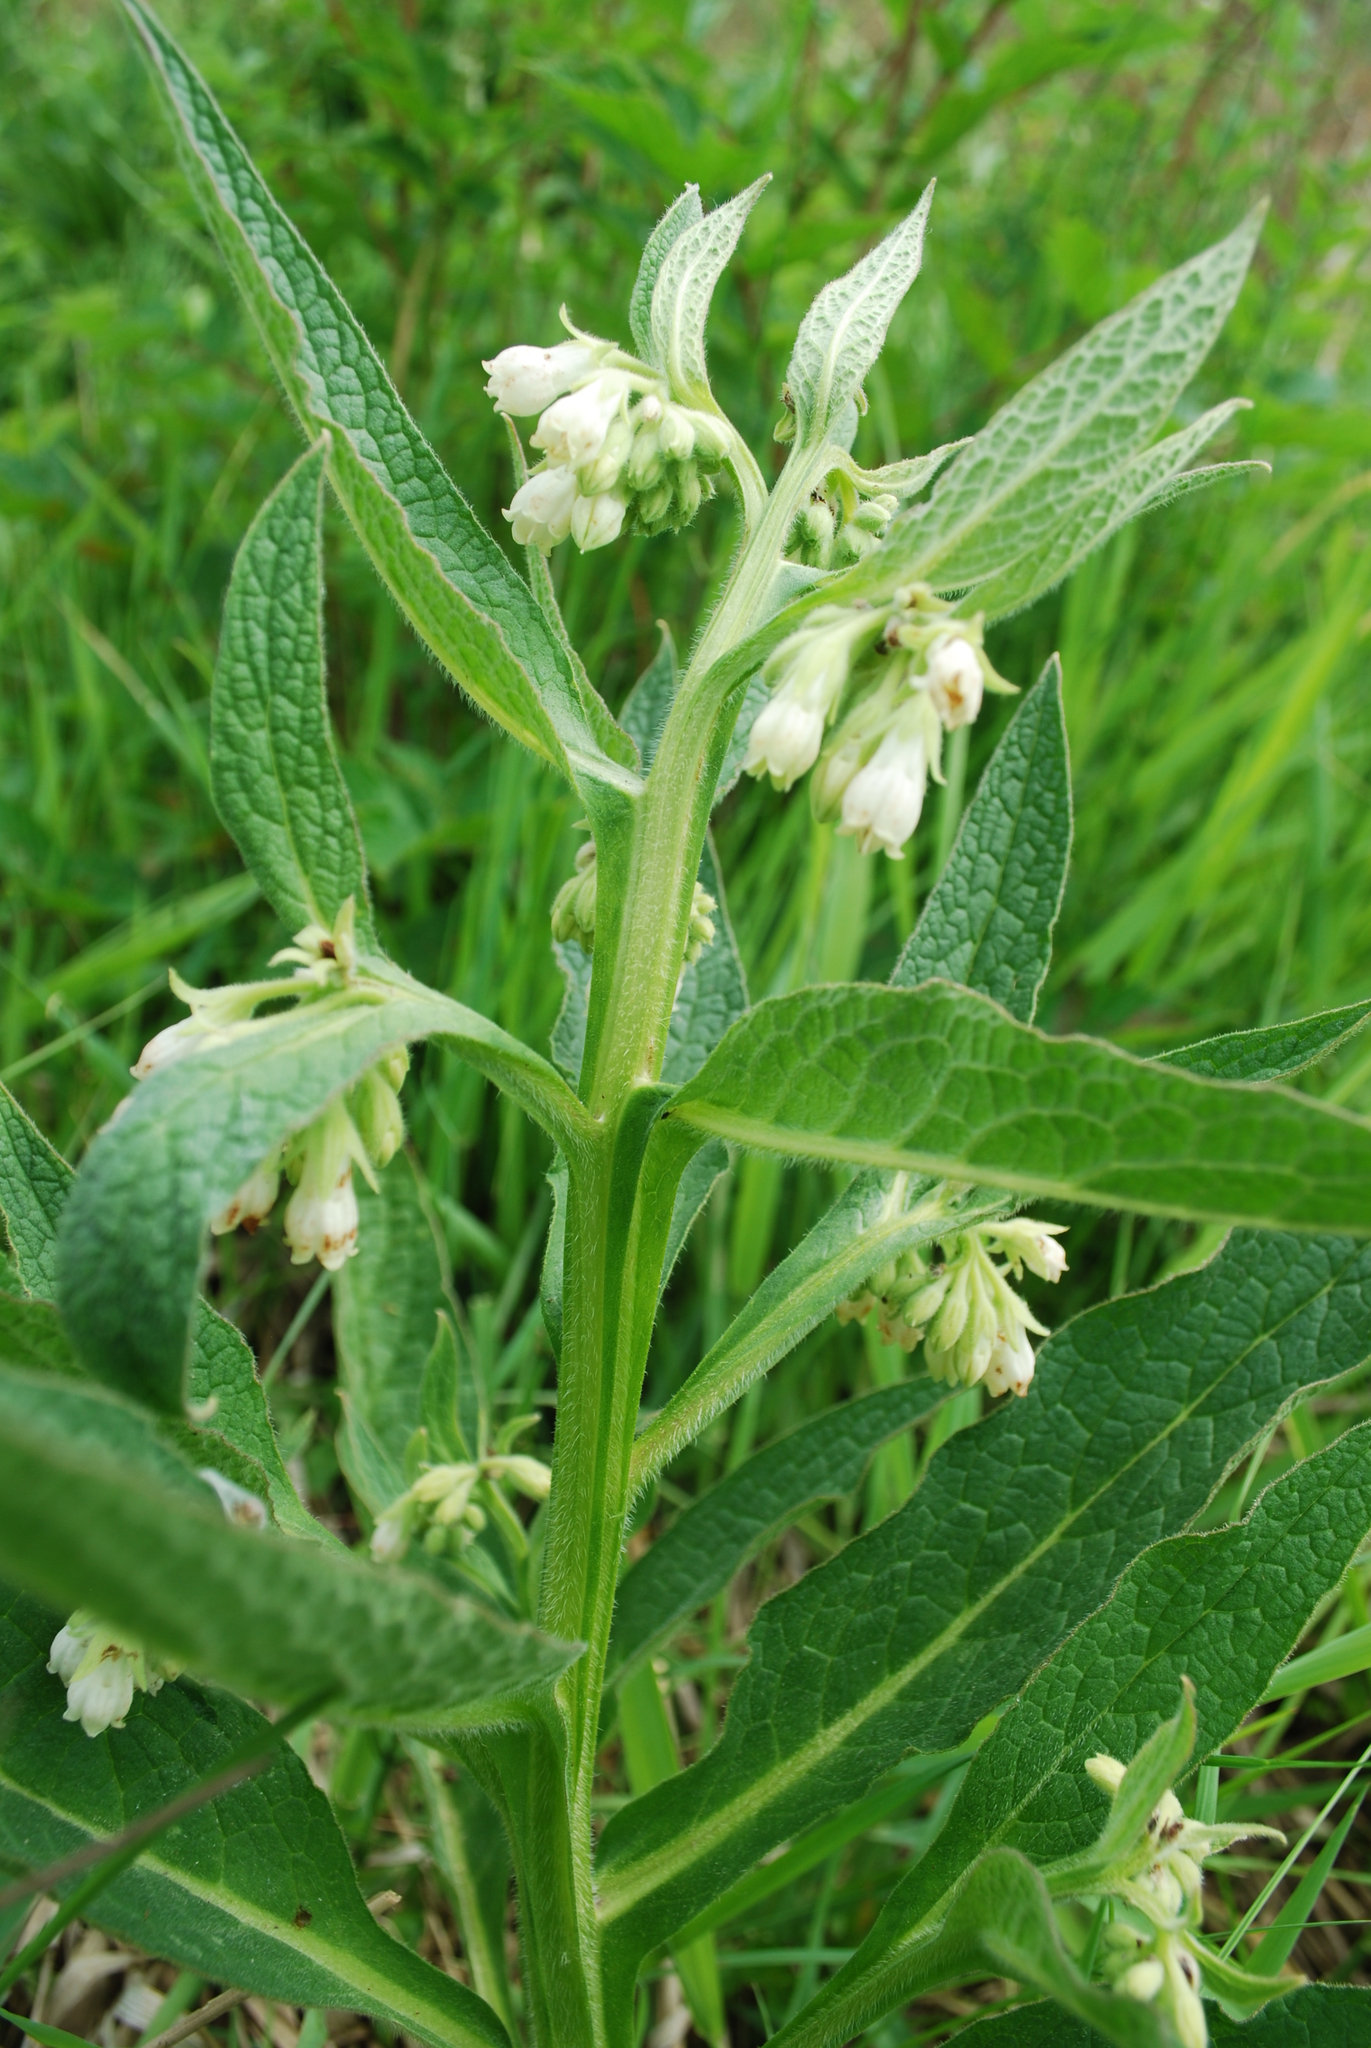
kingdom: Plantae
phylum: Tracheophyta
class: Magnoliopsida
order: Boraginales
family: Boraginaceae
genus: Symphytum
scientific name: Symphytum officinale
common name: Common comfrey
